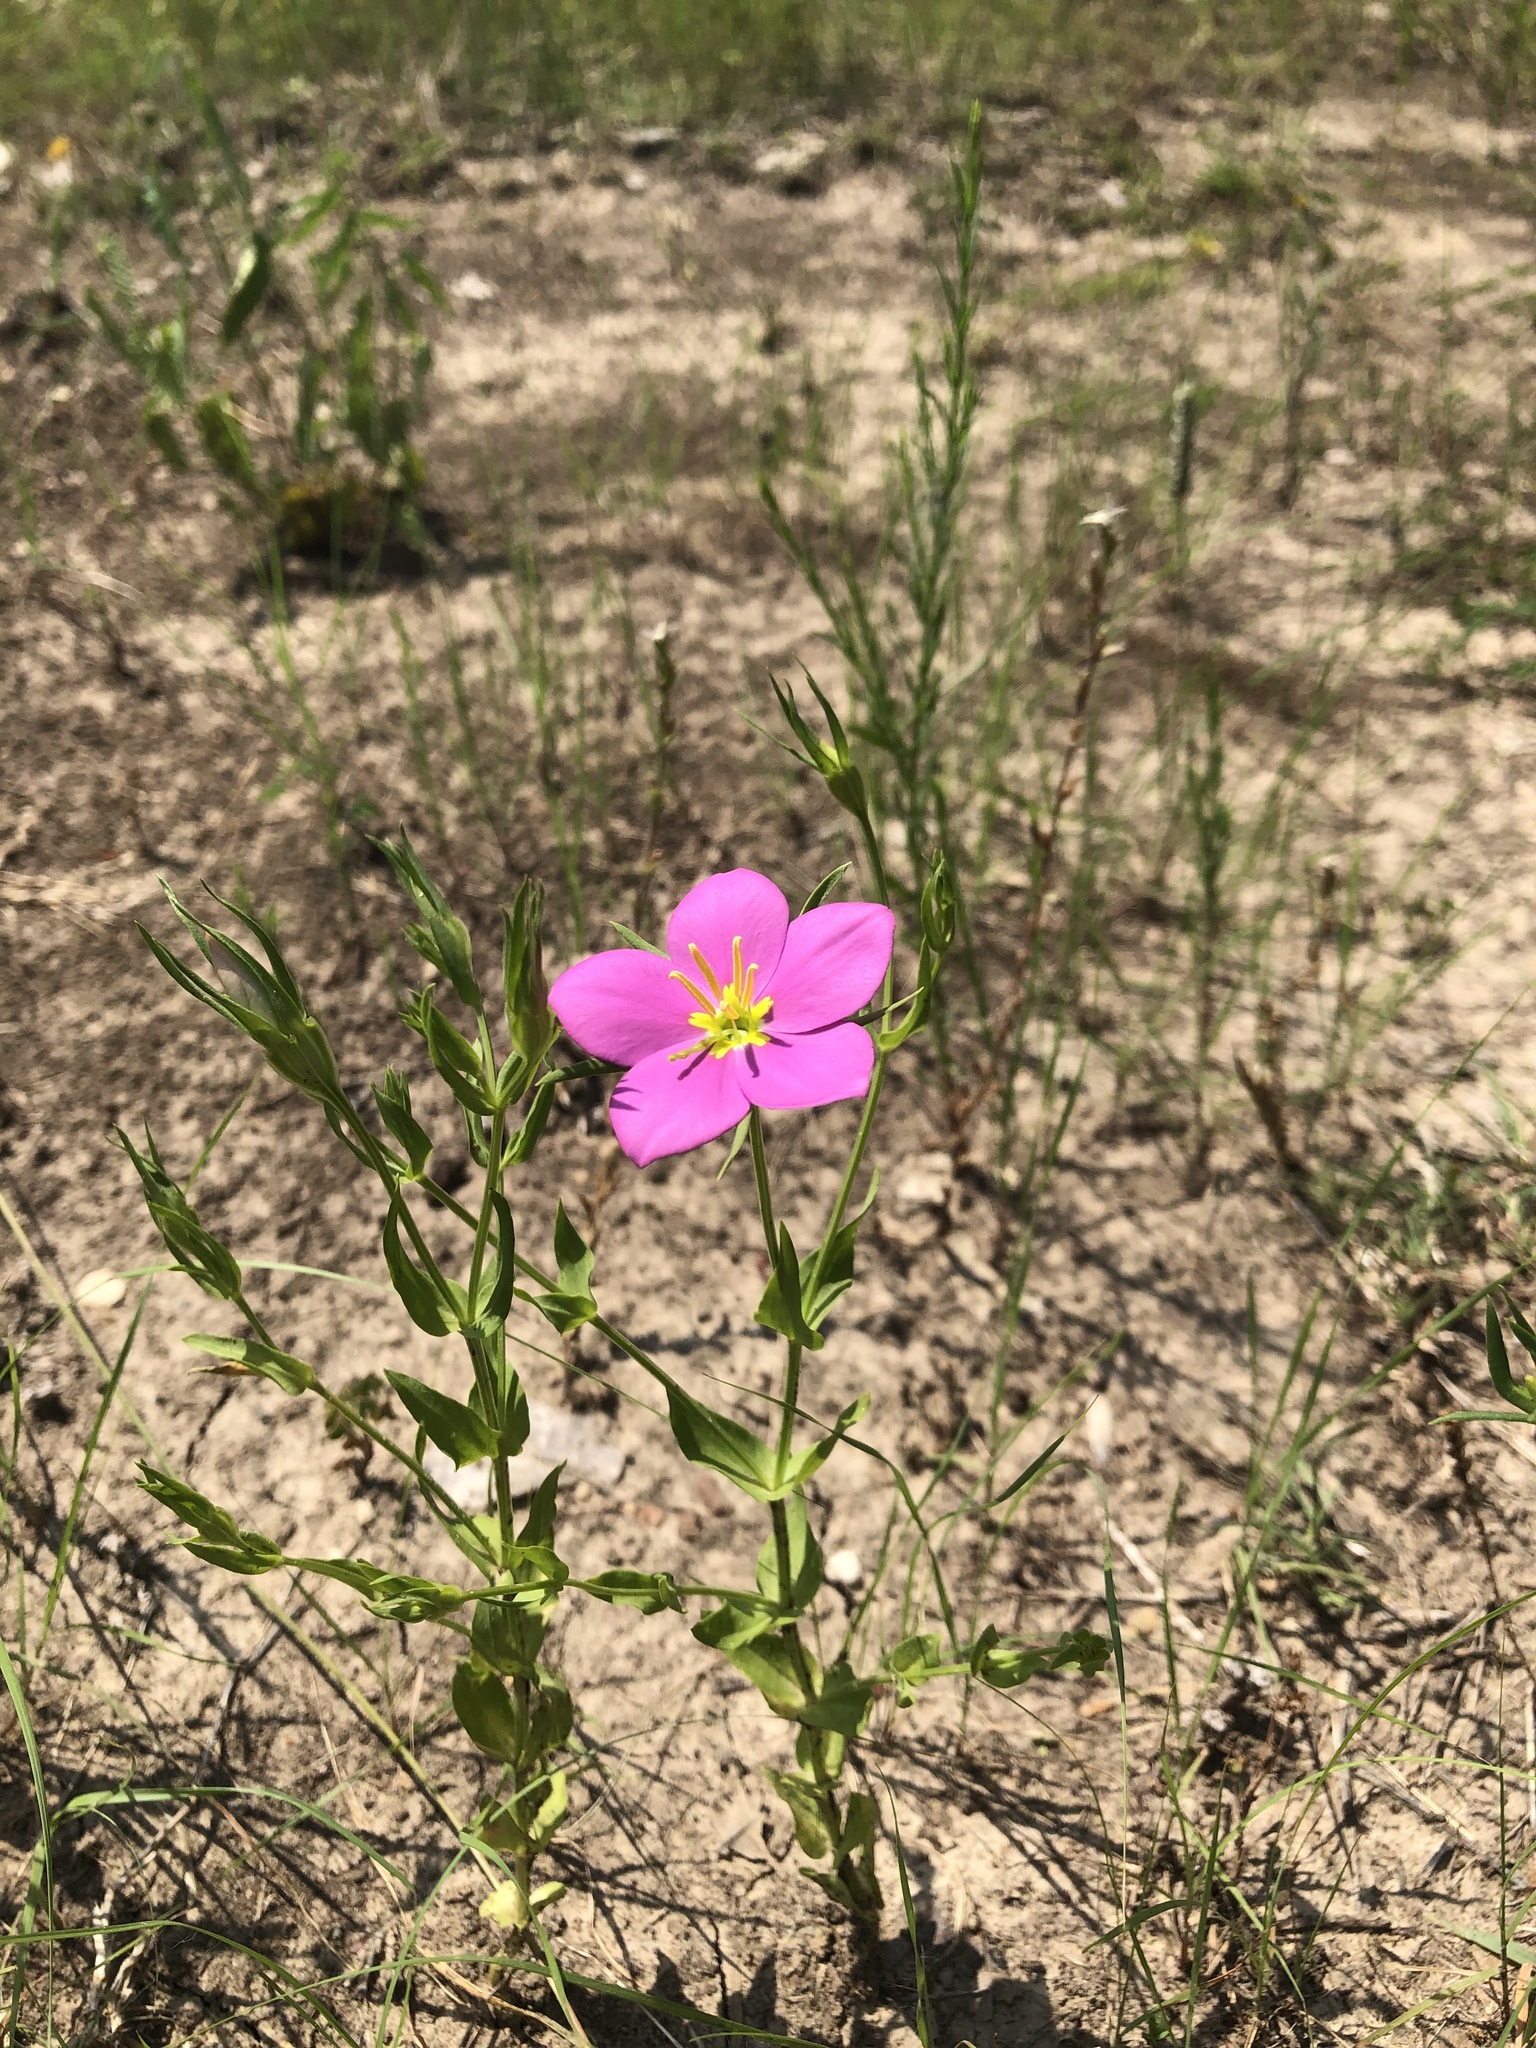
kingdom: Plantae
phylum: Tracheophyta
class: Magnoliopsida
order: Gentianales
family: Gentianaceae
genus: Sabatia
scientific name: Sabatia campestris
